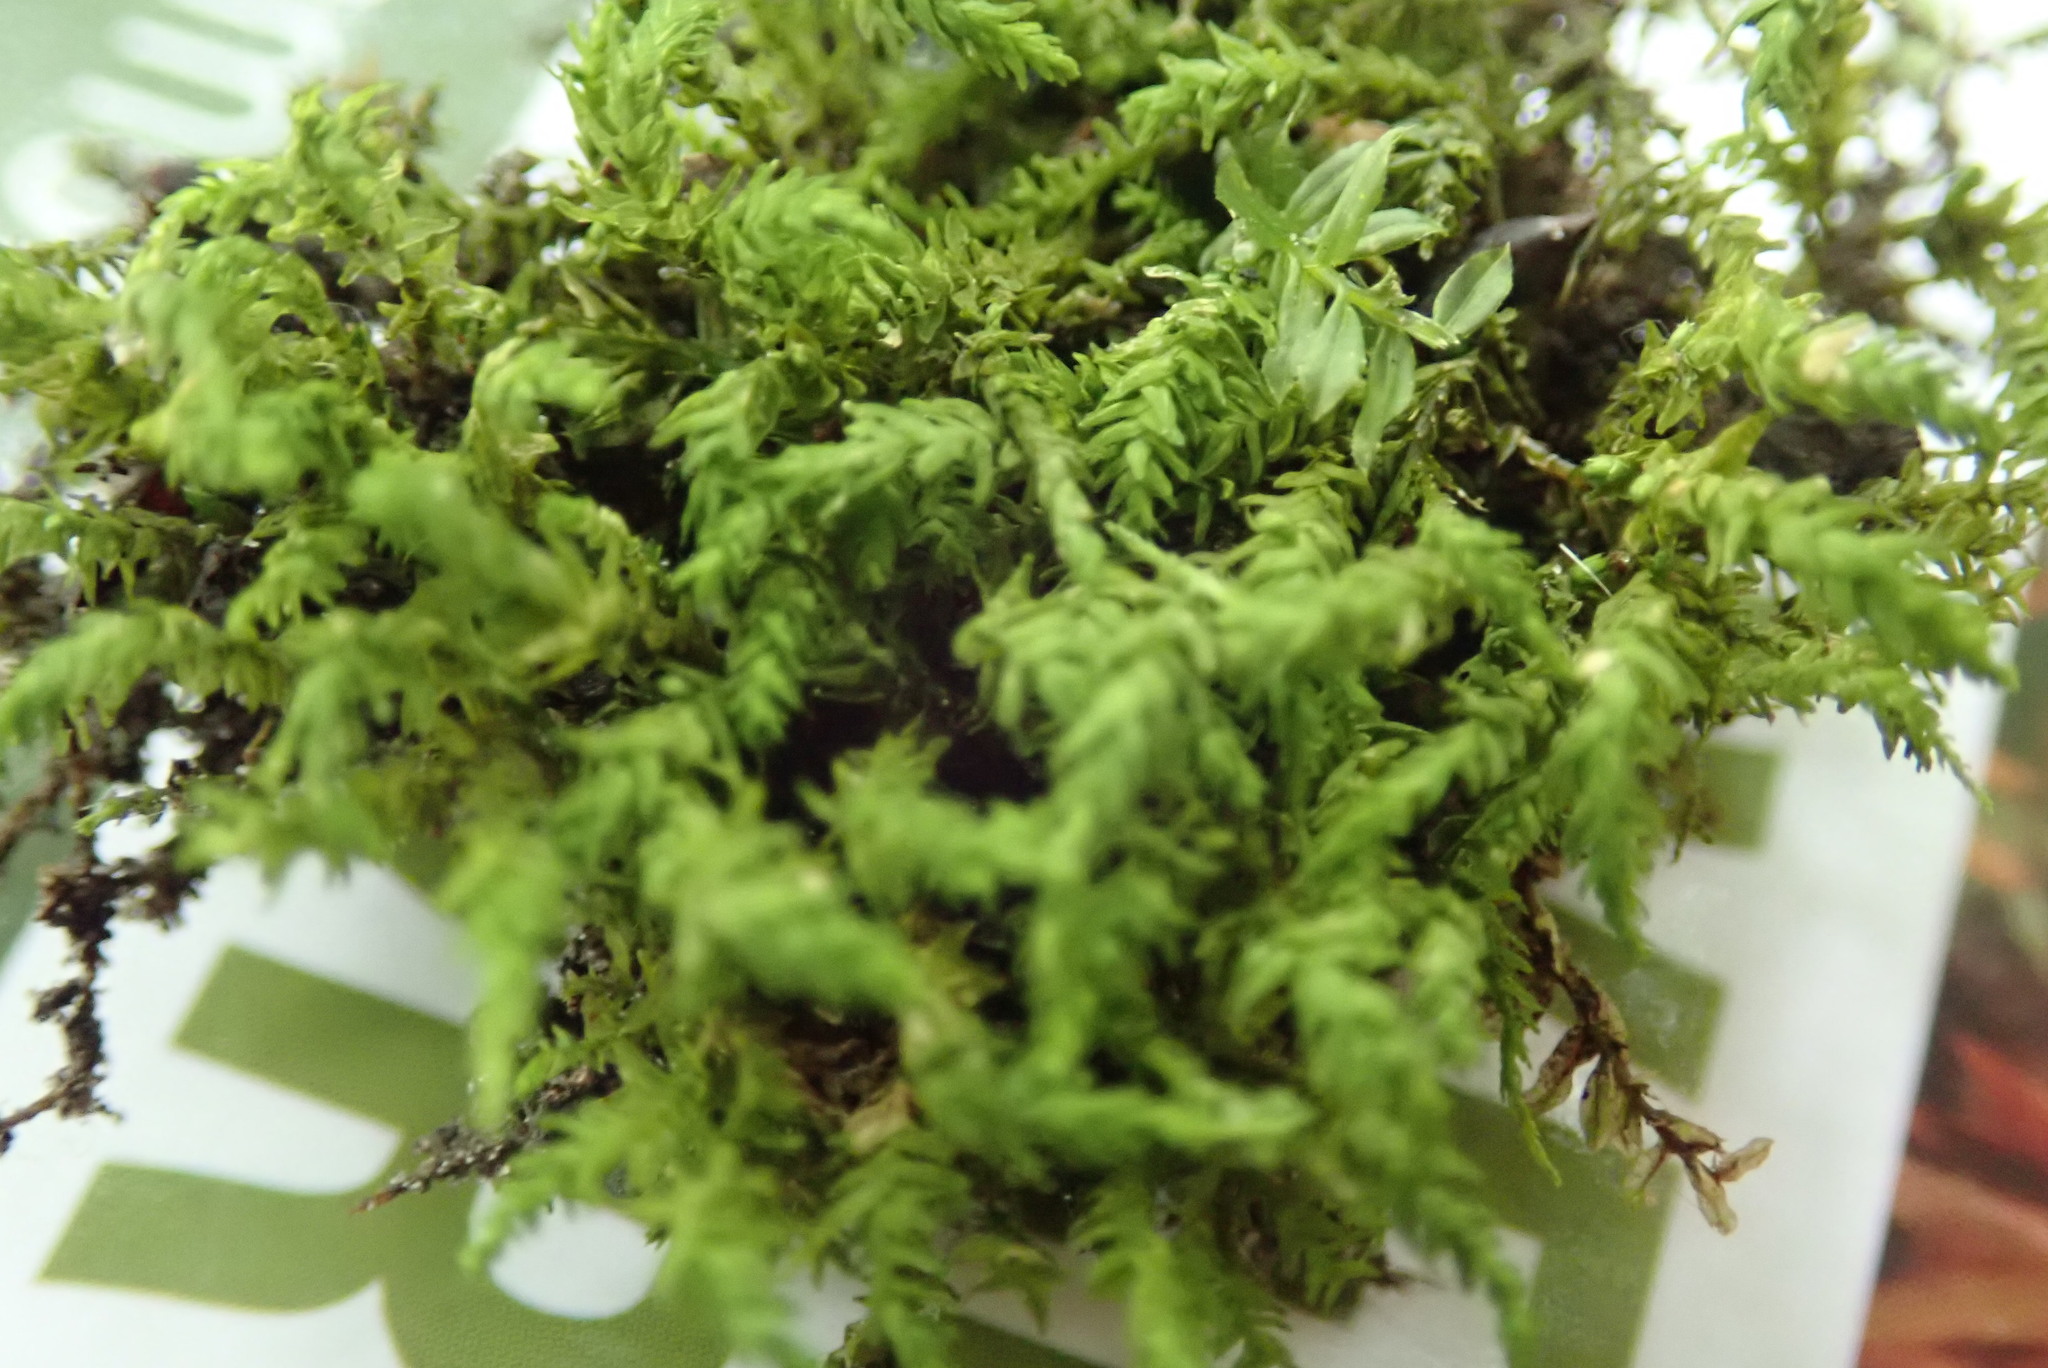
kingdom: Plantae
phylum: Bryophyta
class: Bryopsida
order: Hypnales
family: Neckeraceae
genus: Pseudanomodon
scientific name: Pseudanomodon attenuatus
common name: Tree-skirt moss
